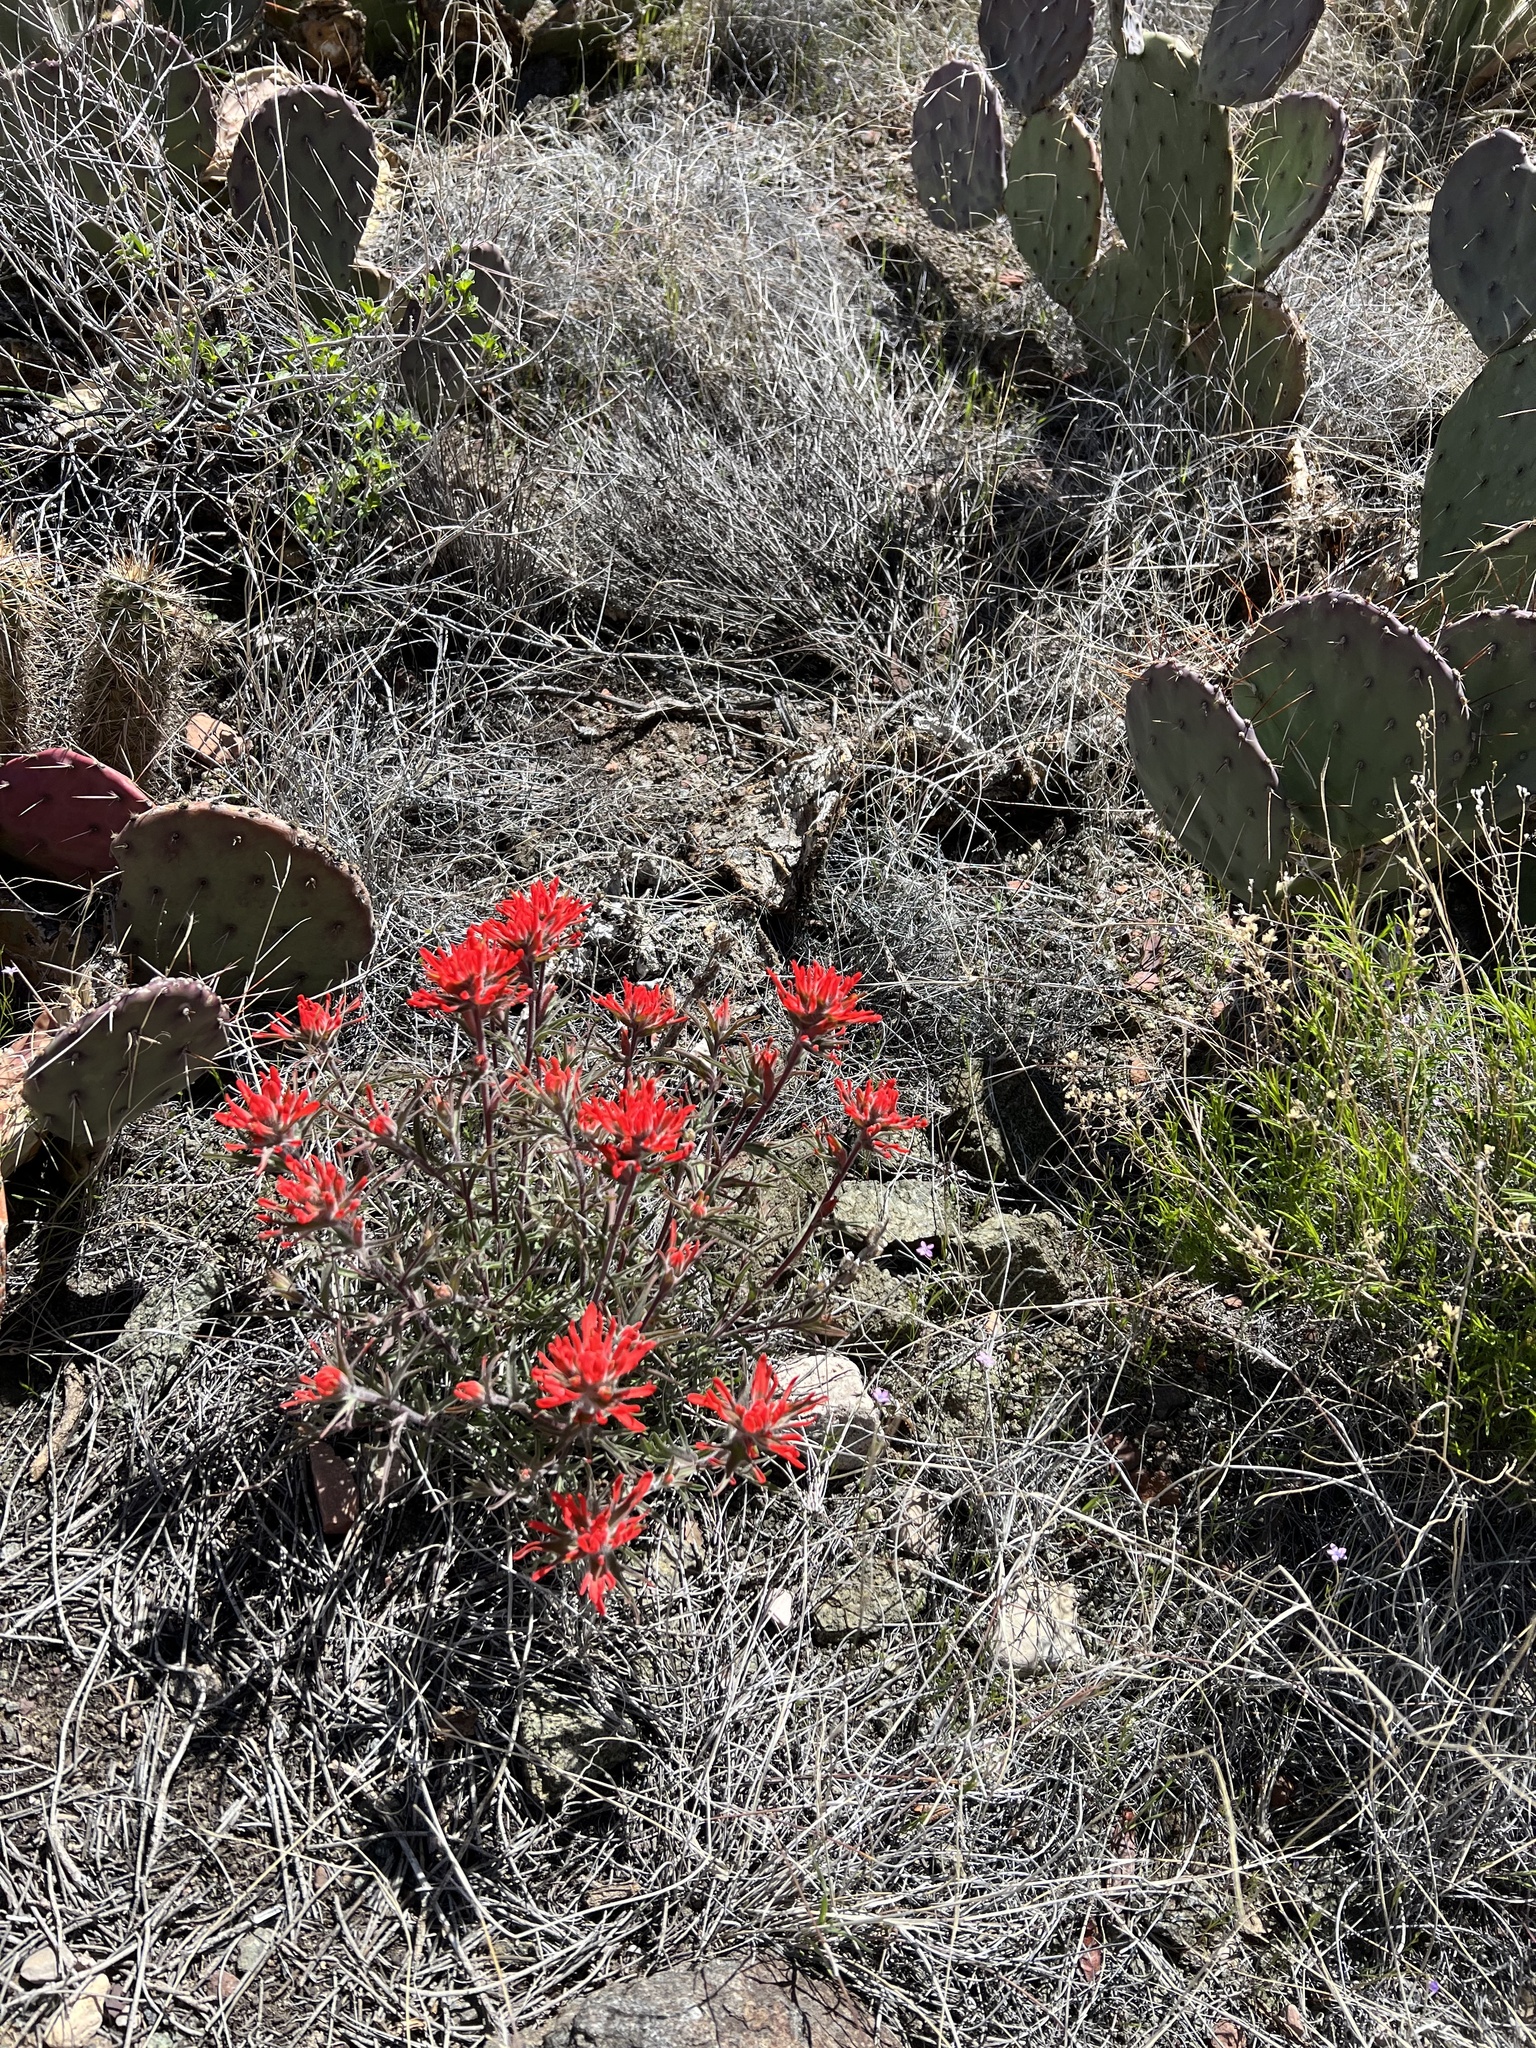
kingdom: Plantae
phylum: Tracheophyta
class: Magnoliopsida
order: Lamiales
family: Orobanchaceae
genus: Castilleja
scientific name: Castilleja chromosa
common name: Desert paintbrush
